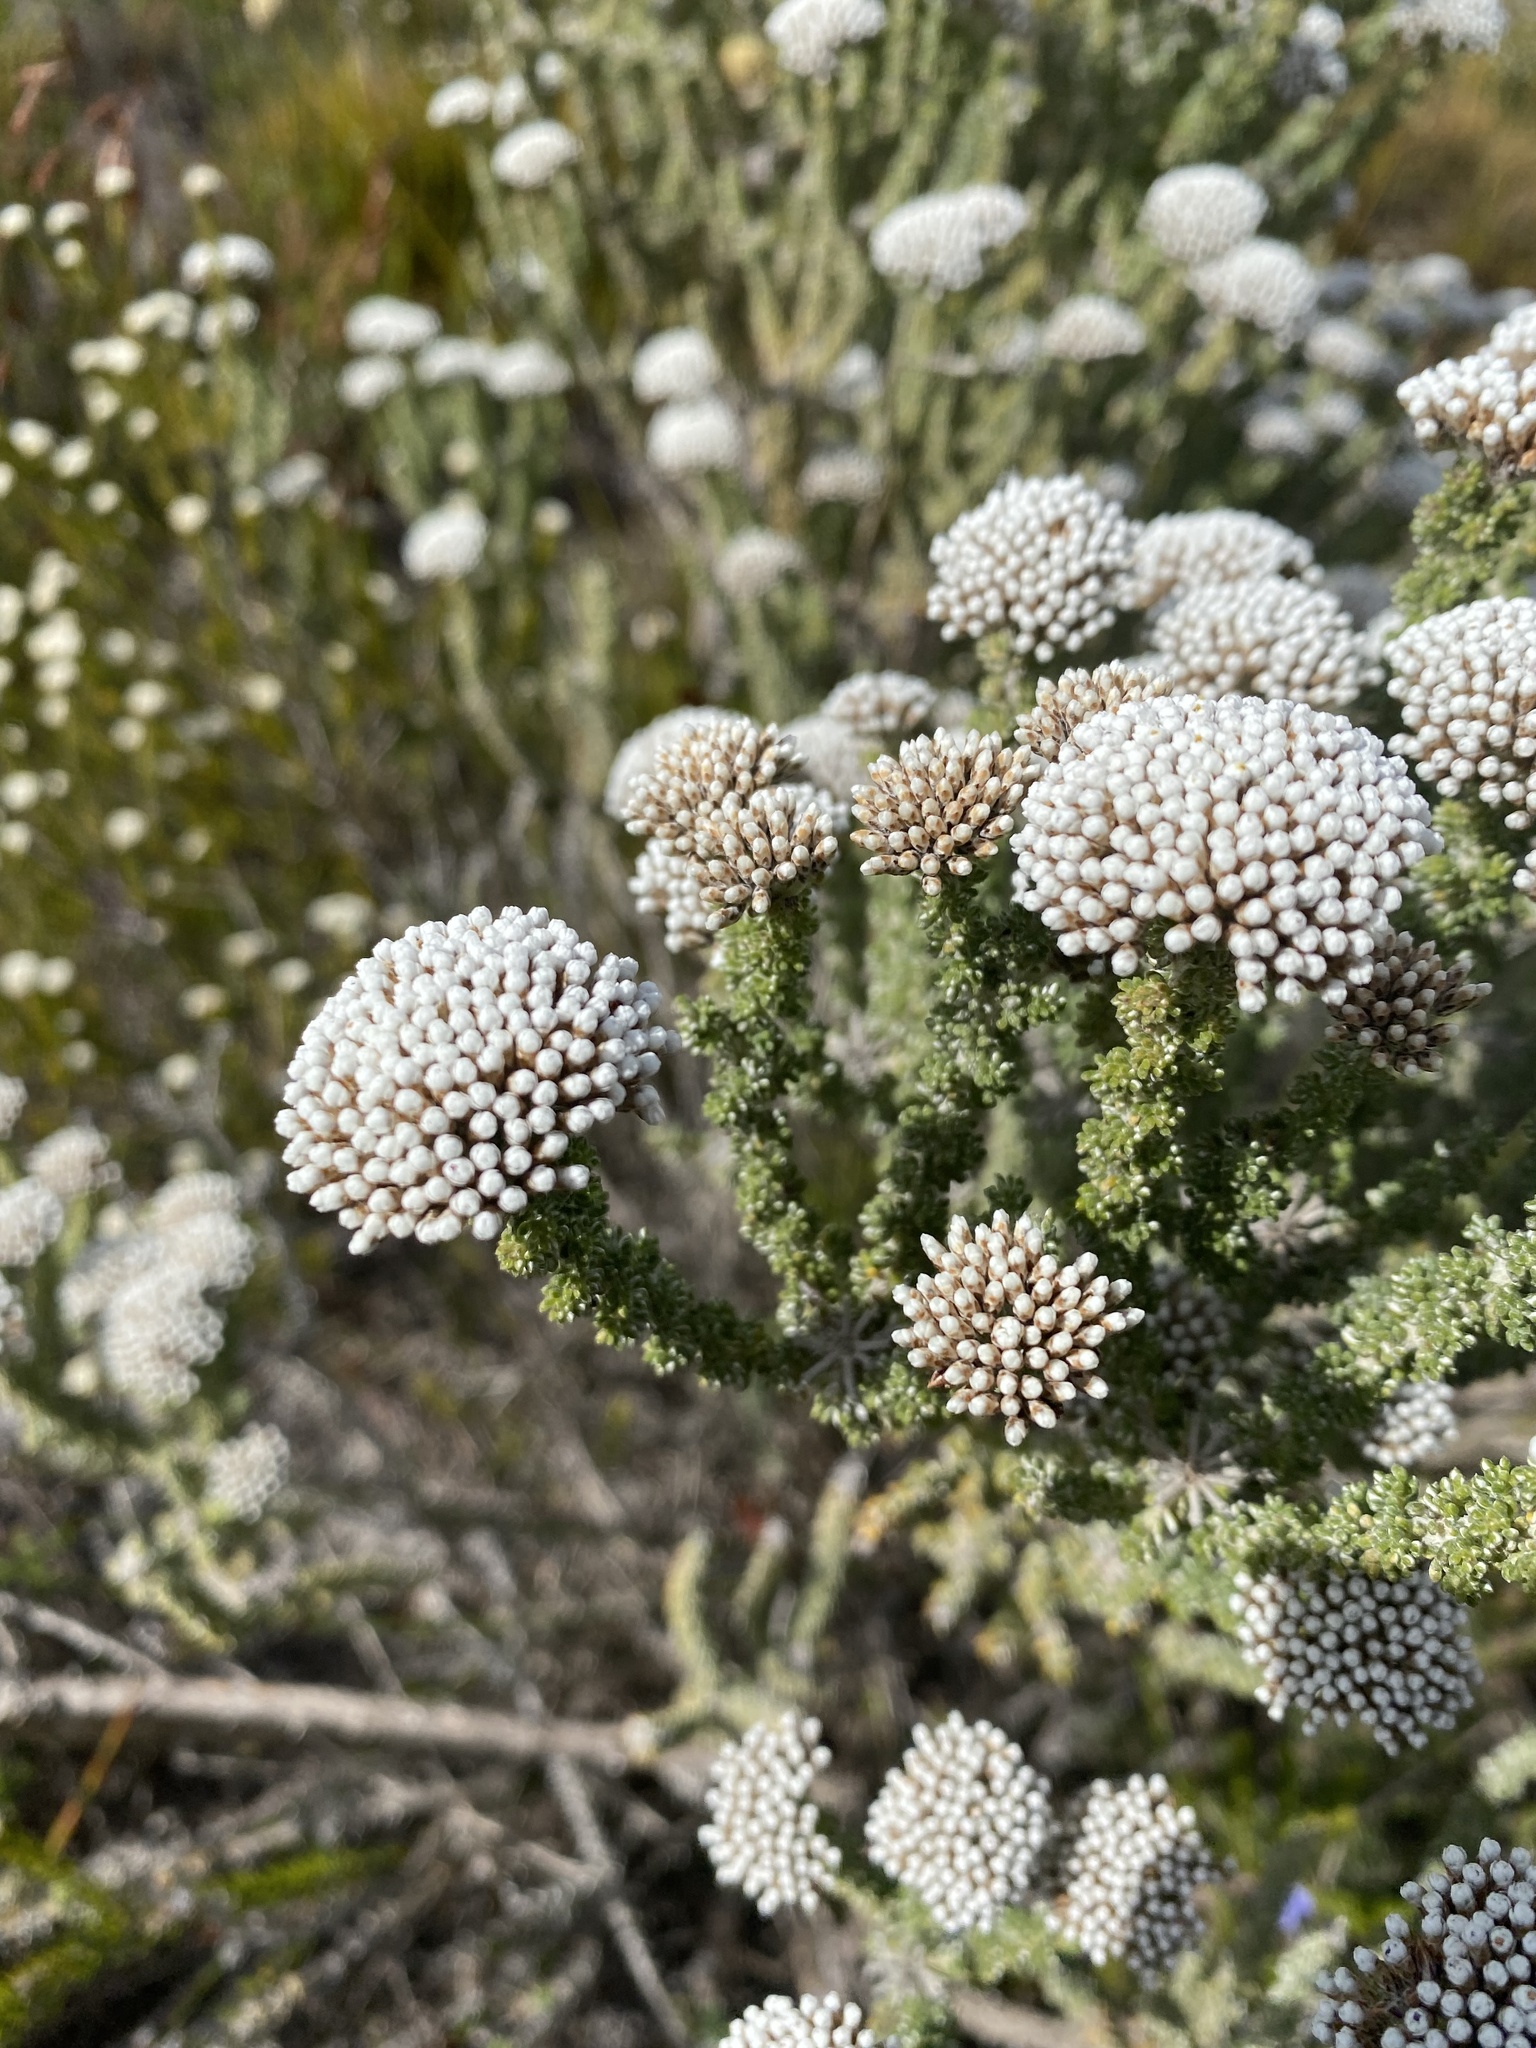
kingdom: Plantae
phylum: Tracheophyta
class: Magnoliopsida
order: Asterales
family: Asteraceae
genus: Metalasia
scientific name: Metalasia calcicola
